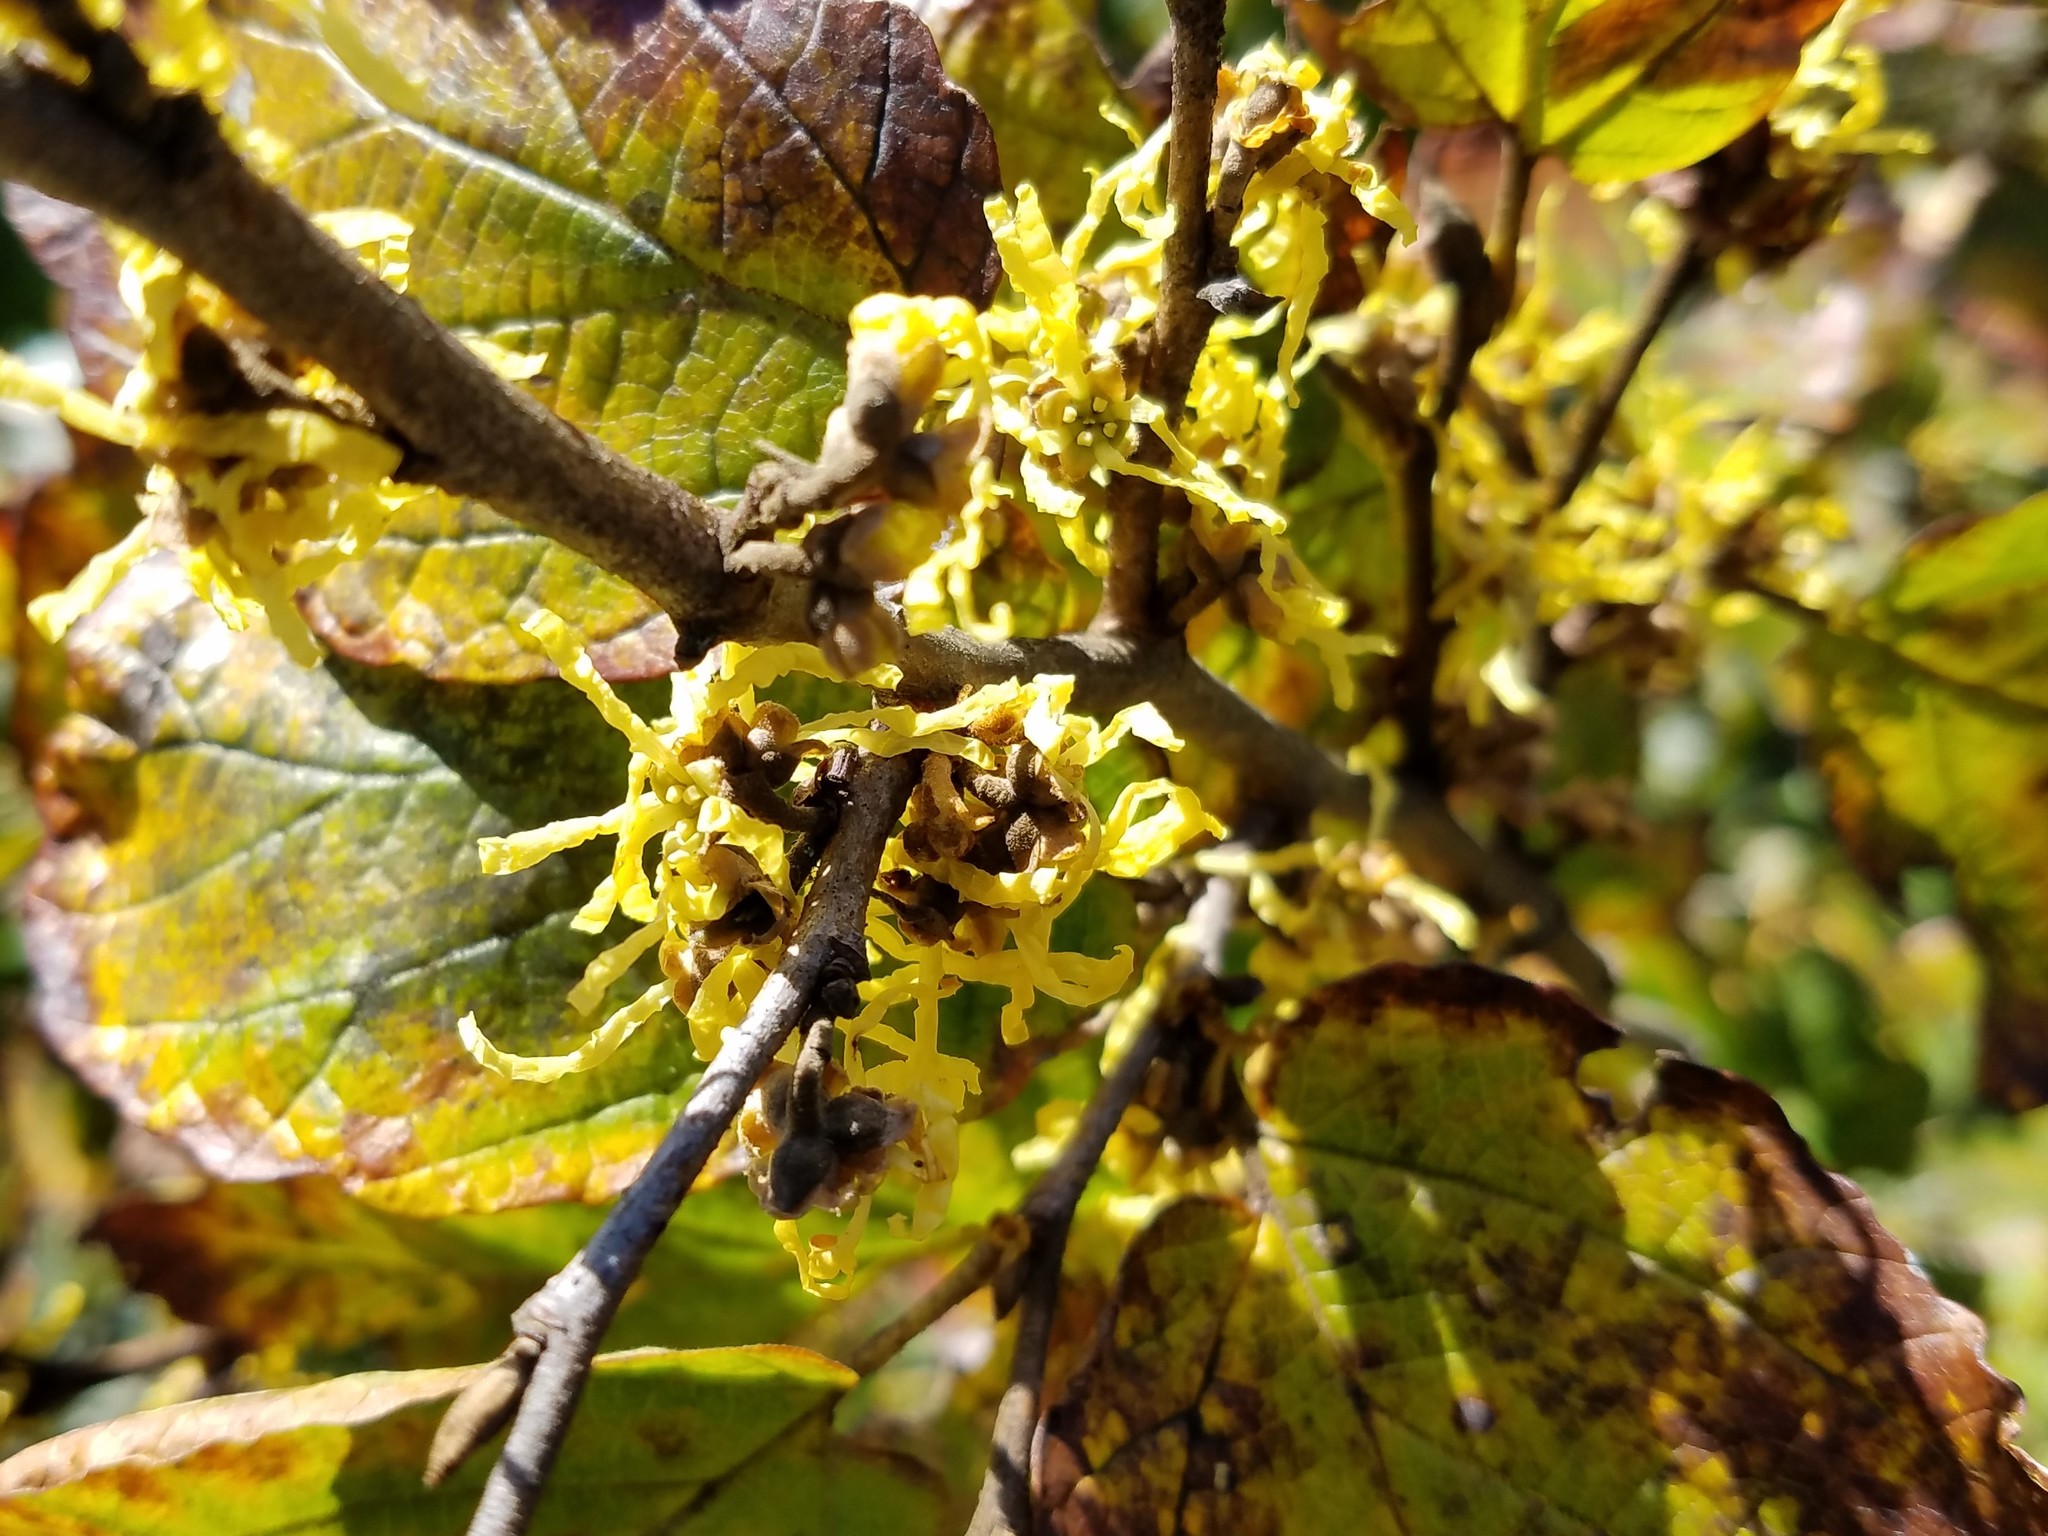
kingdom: Plantae
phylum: Tracheophyta
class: Magnoliopsida
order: Saxifragales
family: Hamamelidaceae
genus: Hamamelis
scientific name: Hamamelis virginiana
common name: Witch-hazel
